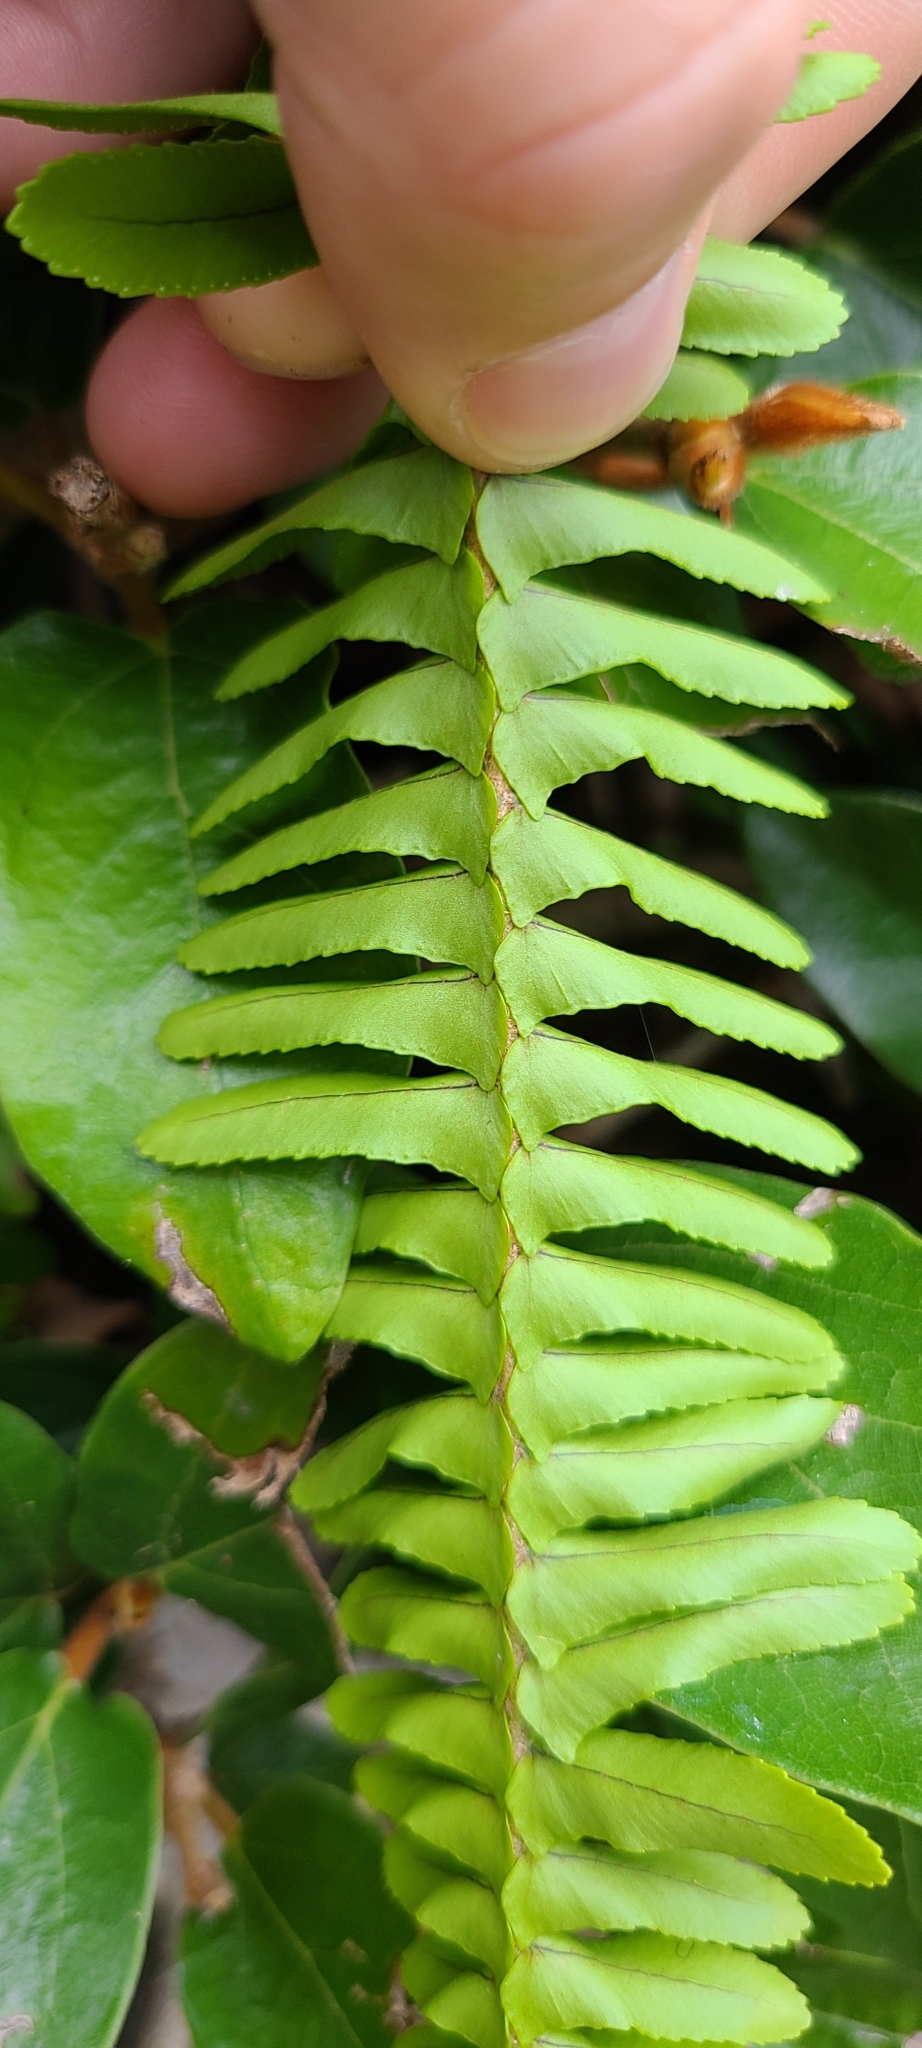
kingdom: Plantae
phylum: Tracheophyta
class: Polypodiopsida
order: Polypodiales
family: Nephrolepidaceae
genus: Nephrolepis
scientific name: Nephrolepis cordifolia
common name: Narrow swordfern
